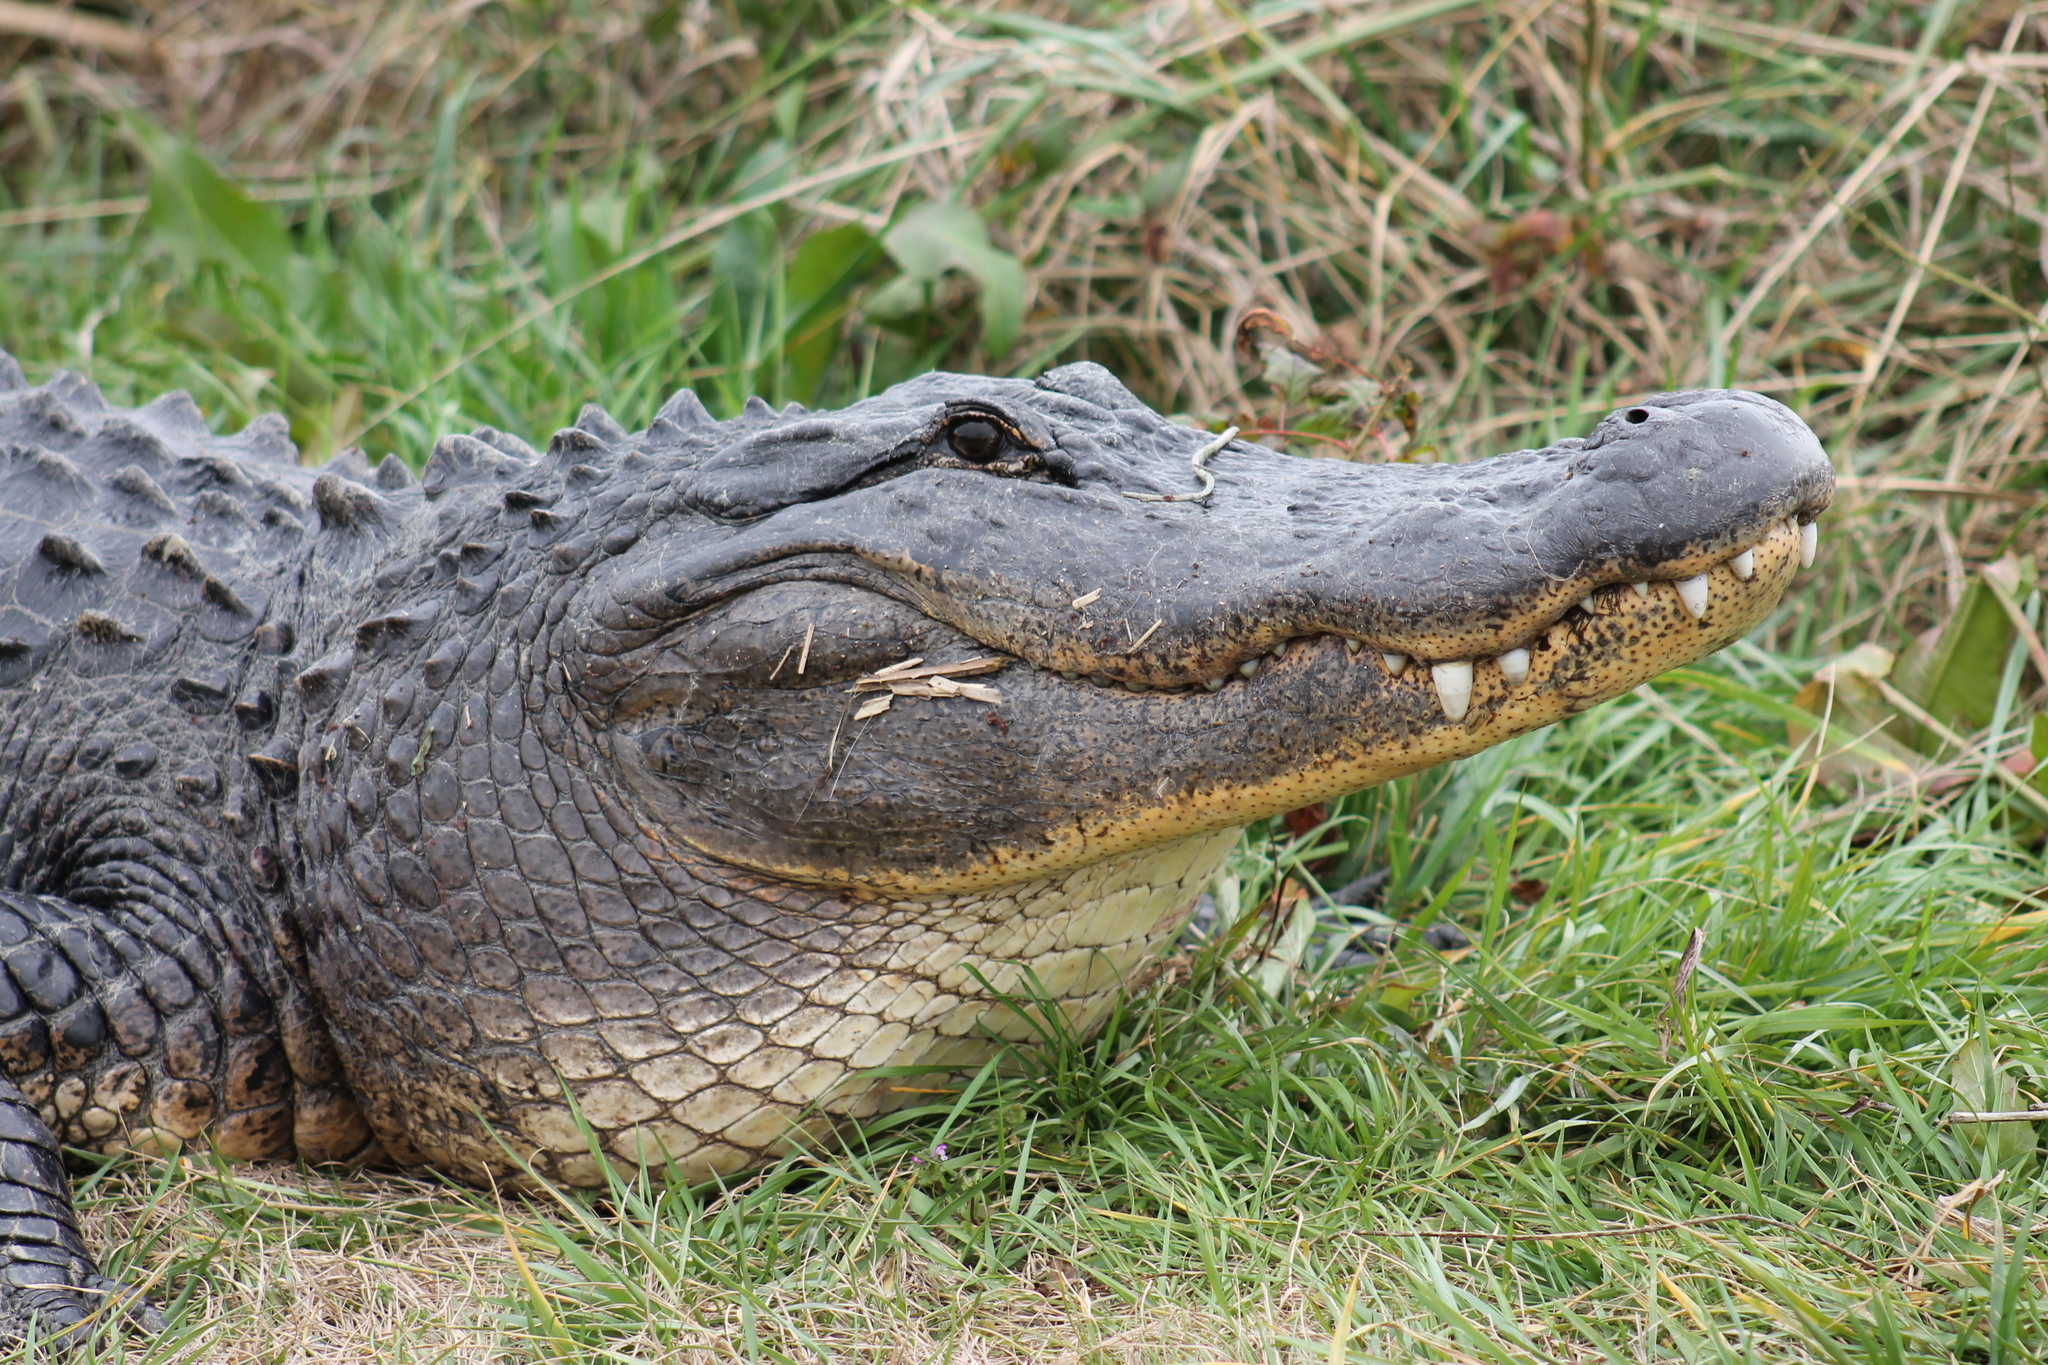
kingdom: Animalia
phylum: Chordata
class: Crocodylia
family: Alligatoridae
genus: Alligator
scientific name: Alligator mississippiensis
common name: American alligator
